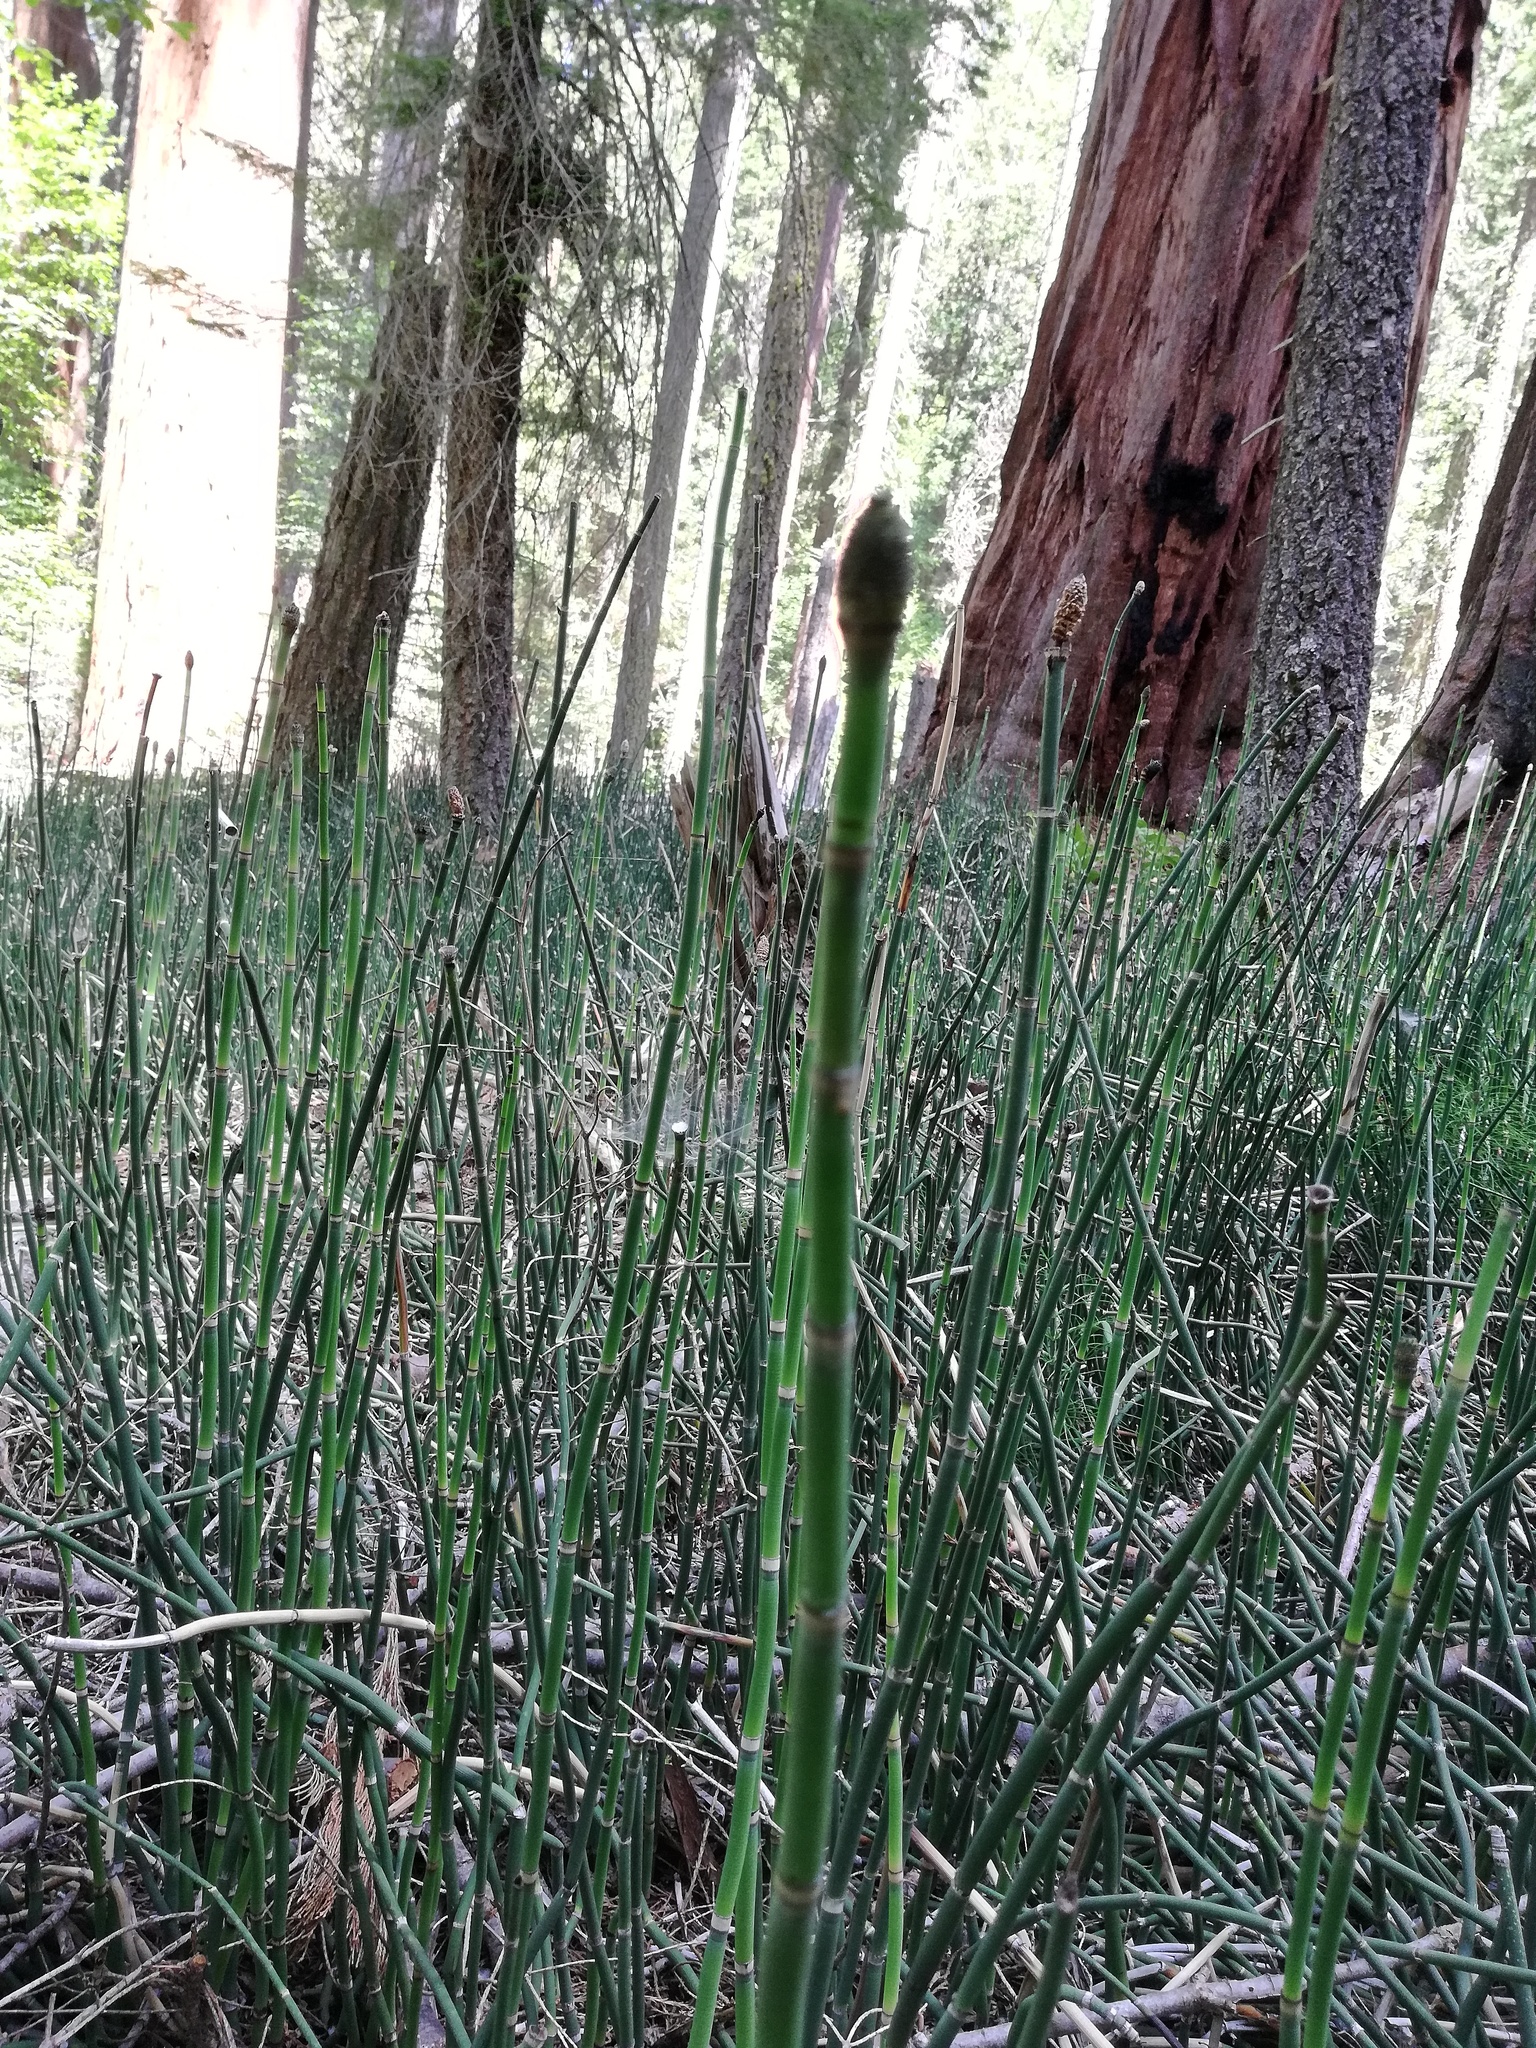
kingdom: Plantae
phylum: Tracheophyta
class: Polypodiopsida
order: Equisetales
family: Equisetaceae
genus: Equisetum
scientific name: Equisetum praealtum
